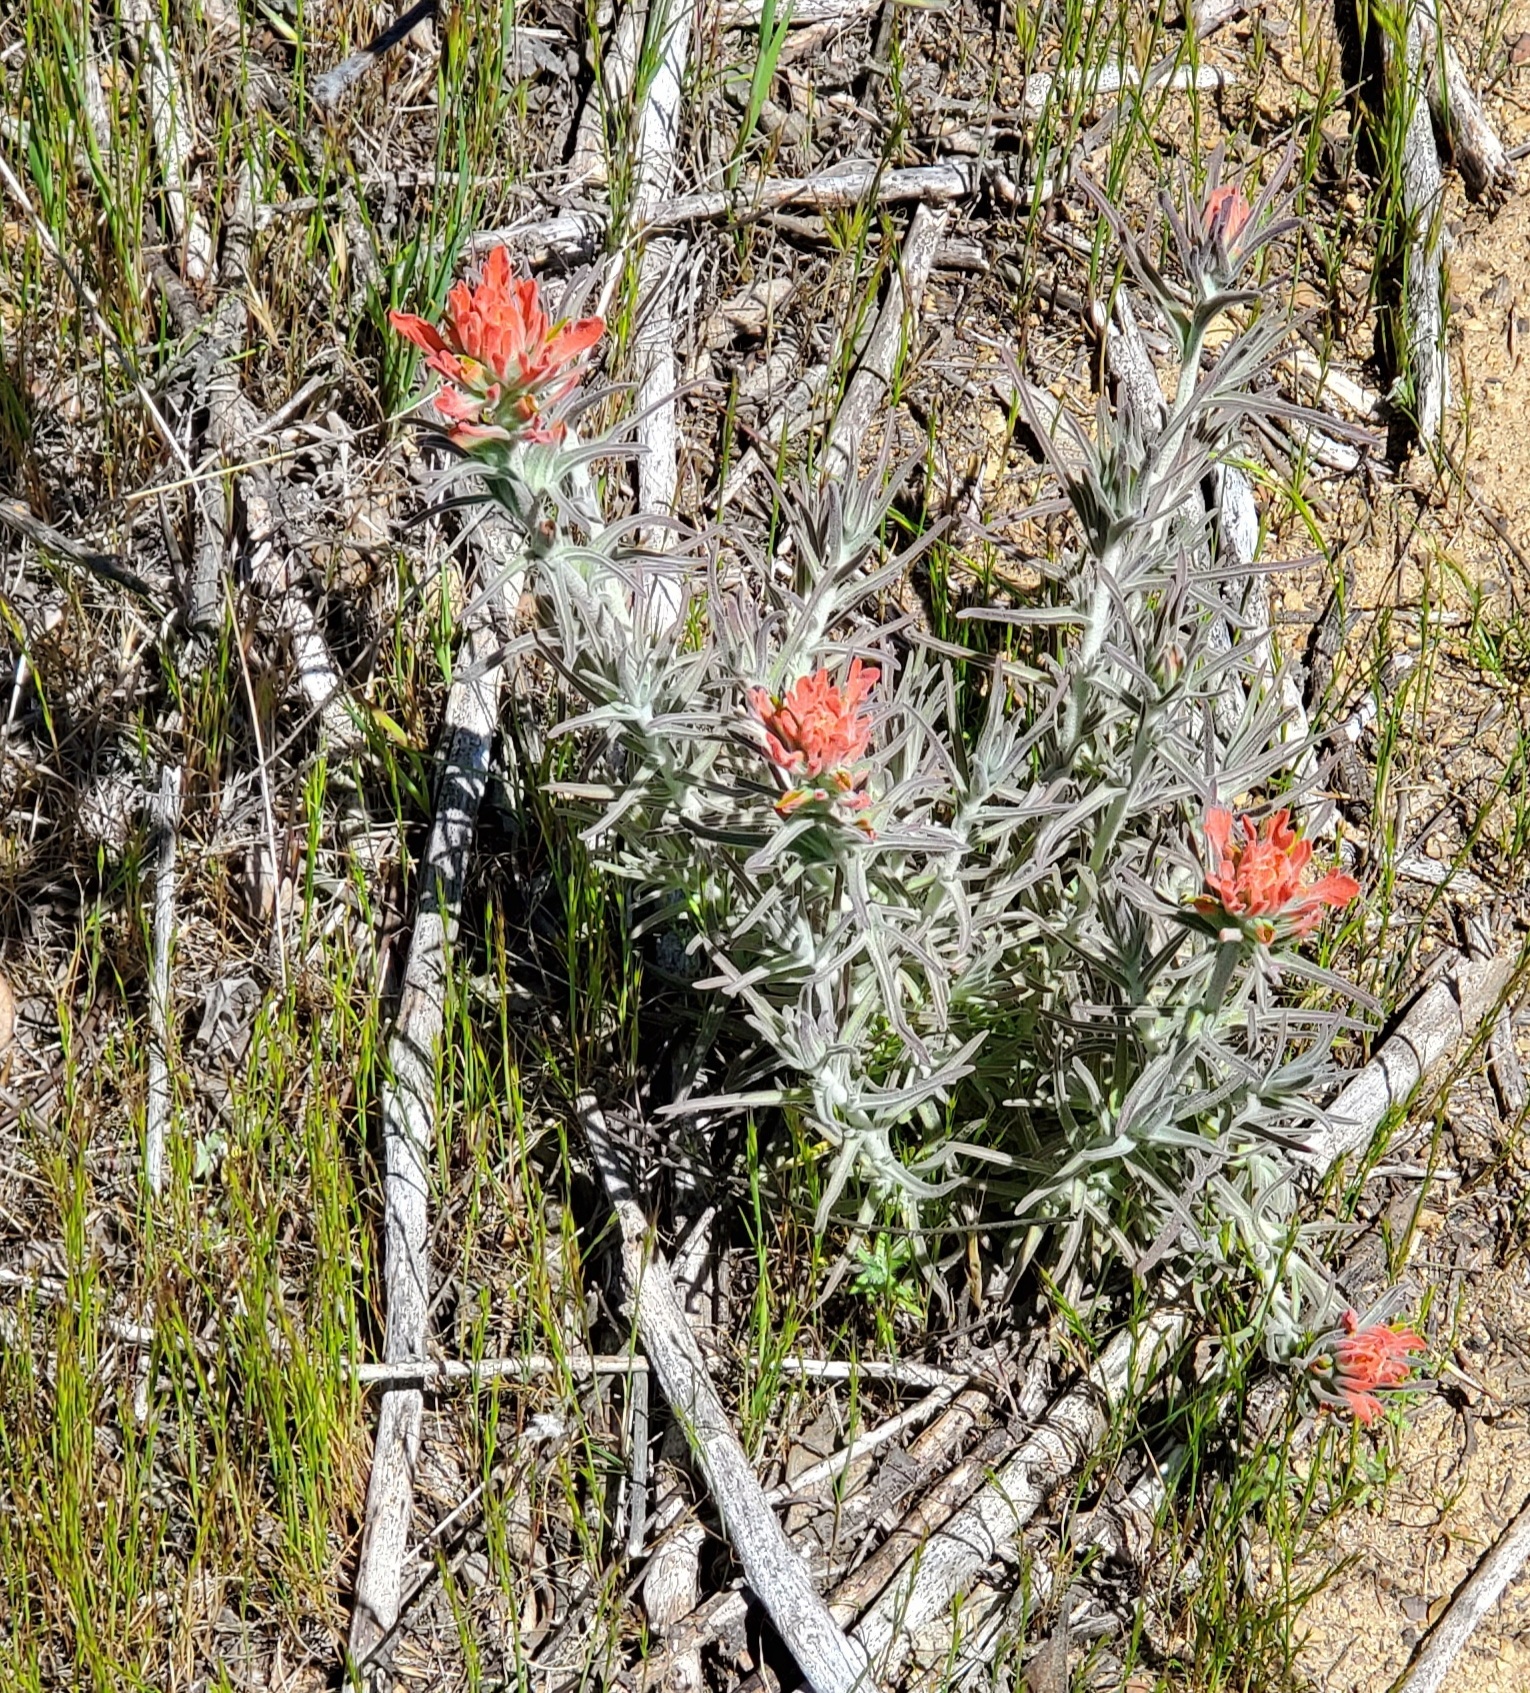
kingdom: Plantae
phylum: Tracheophyta
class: Magnoliopsida
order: Lamiales
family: Orobanchaceae
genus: Castilleja
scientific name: Castilleja foliolosa
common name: Woolly indian paintbrush
